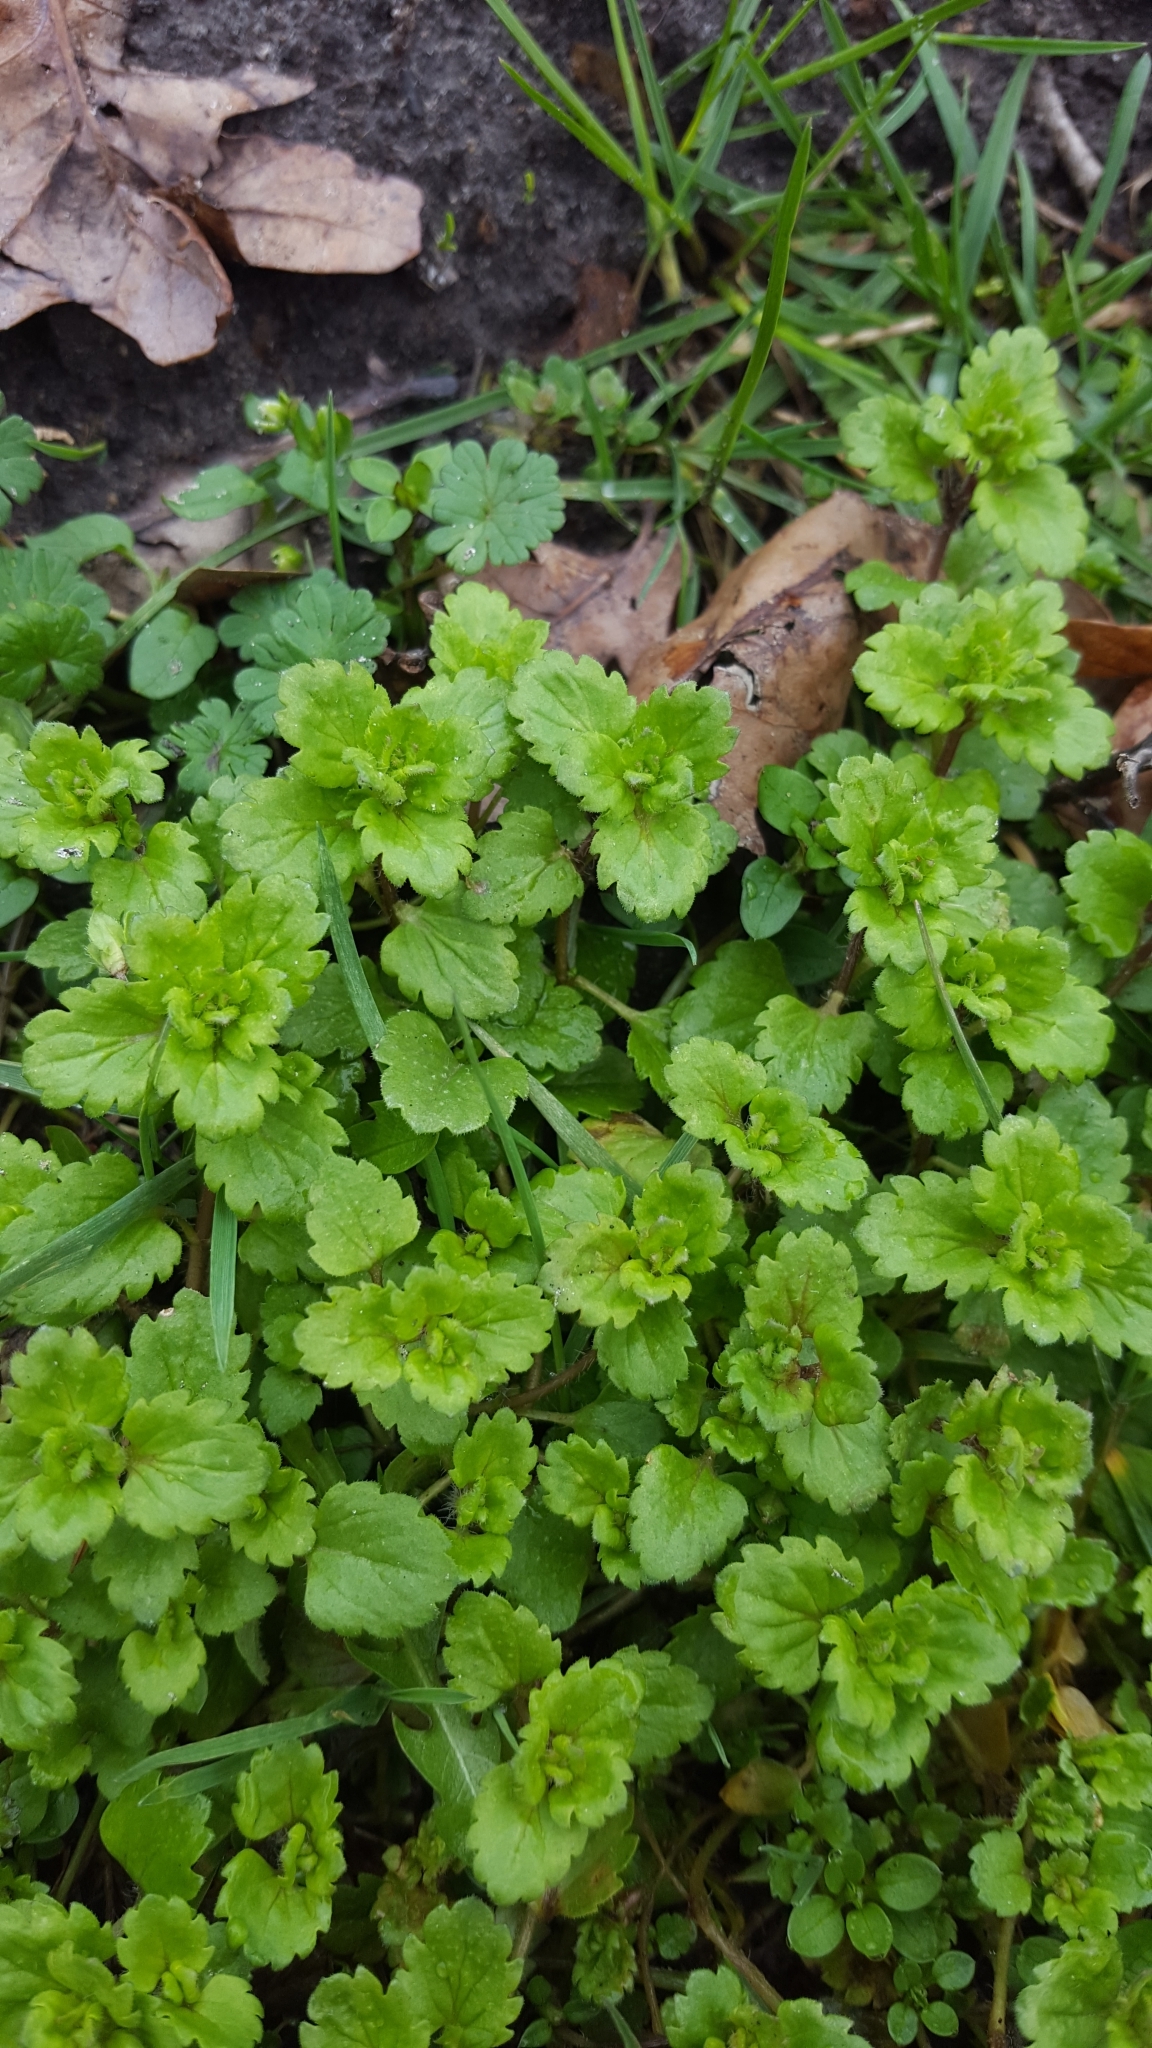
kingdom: Plantae
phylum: Tracheophyta
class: Magnoliopsida
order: Lamiales
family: Plantaginaceae
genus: Veronica
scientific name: Veronica persica
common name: Common field-speedwell
